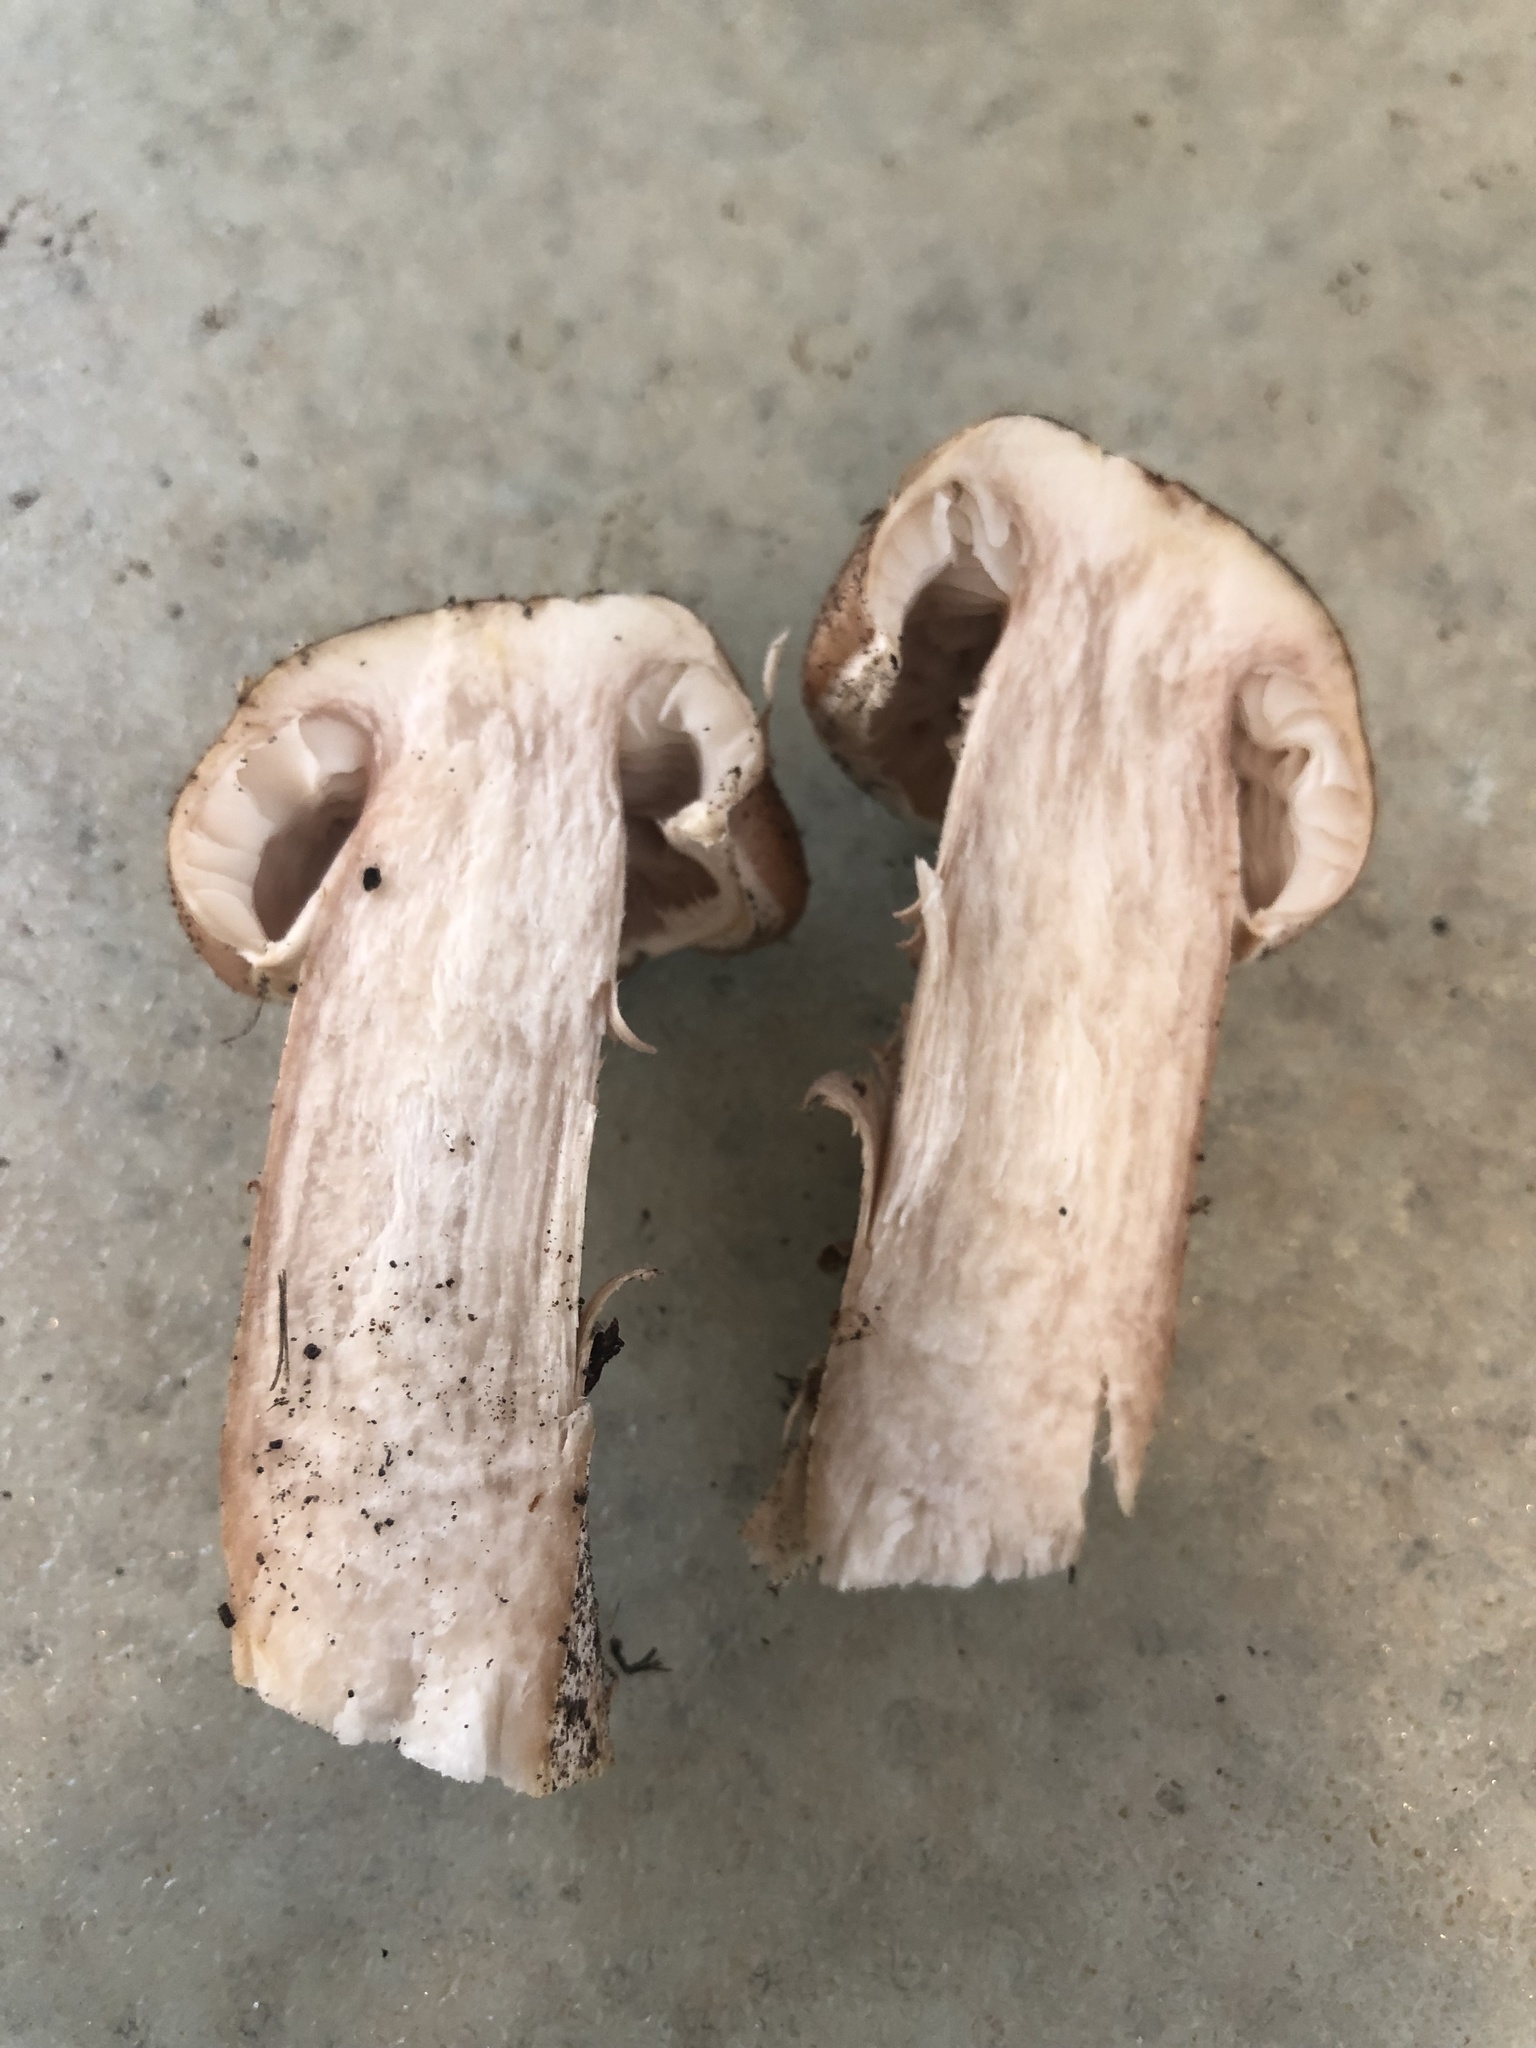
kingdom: Fungi
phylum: Basidiomycota
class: Agaricomycetes
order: Agaricales
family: Physalacriaceae
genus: Armillaria
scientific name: Armillaria mellea
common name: Honey fungus
